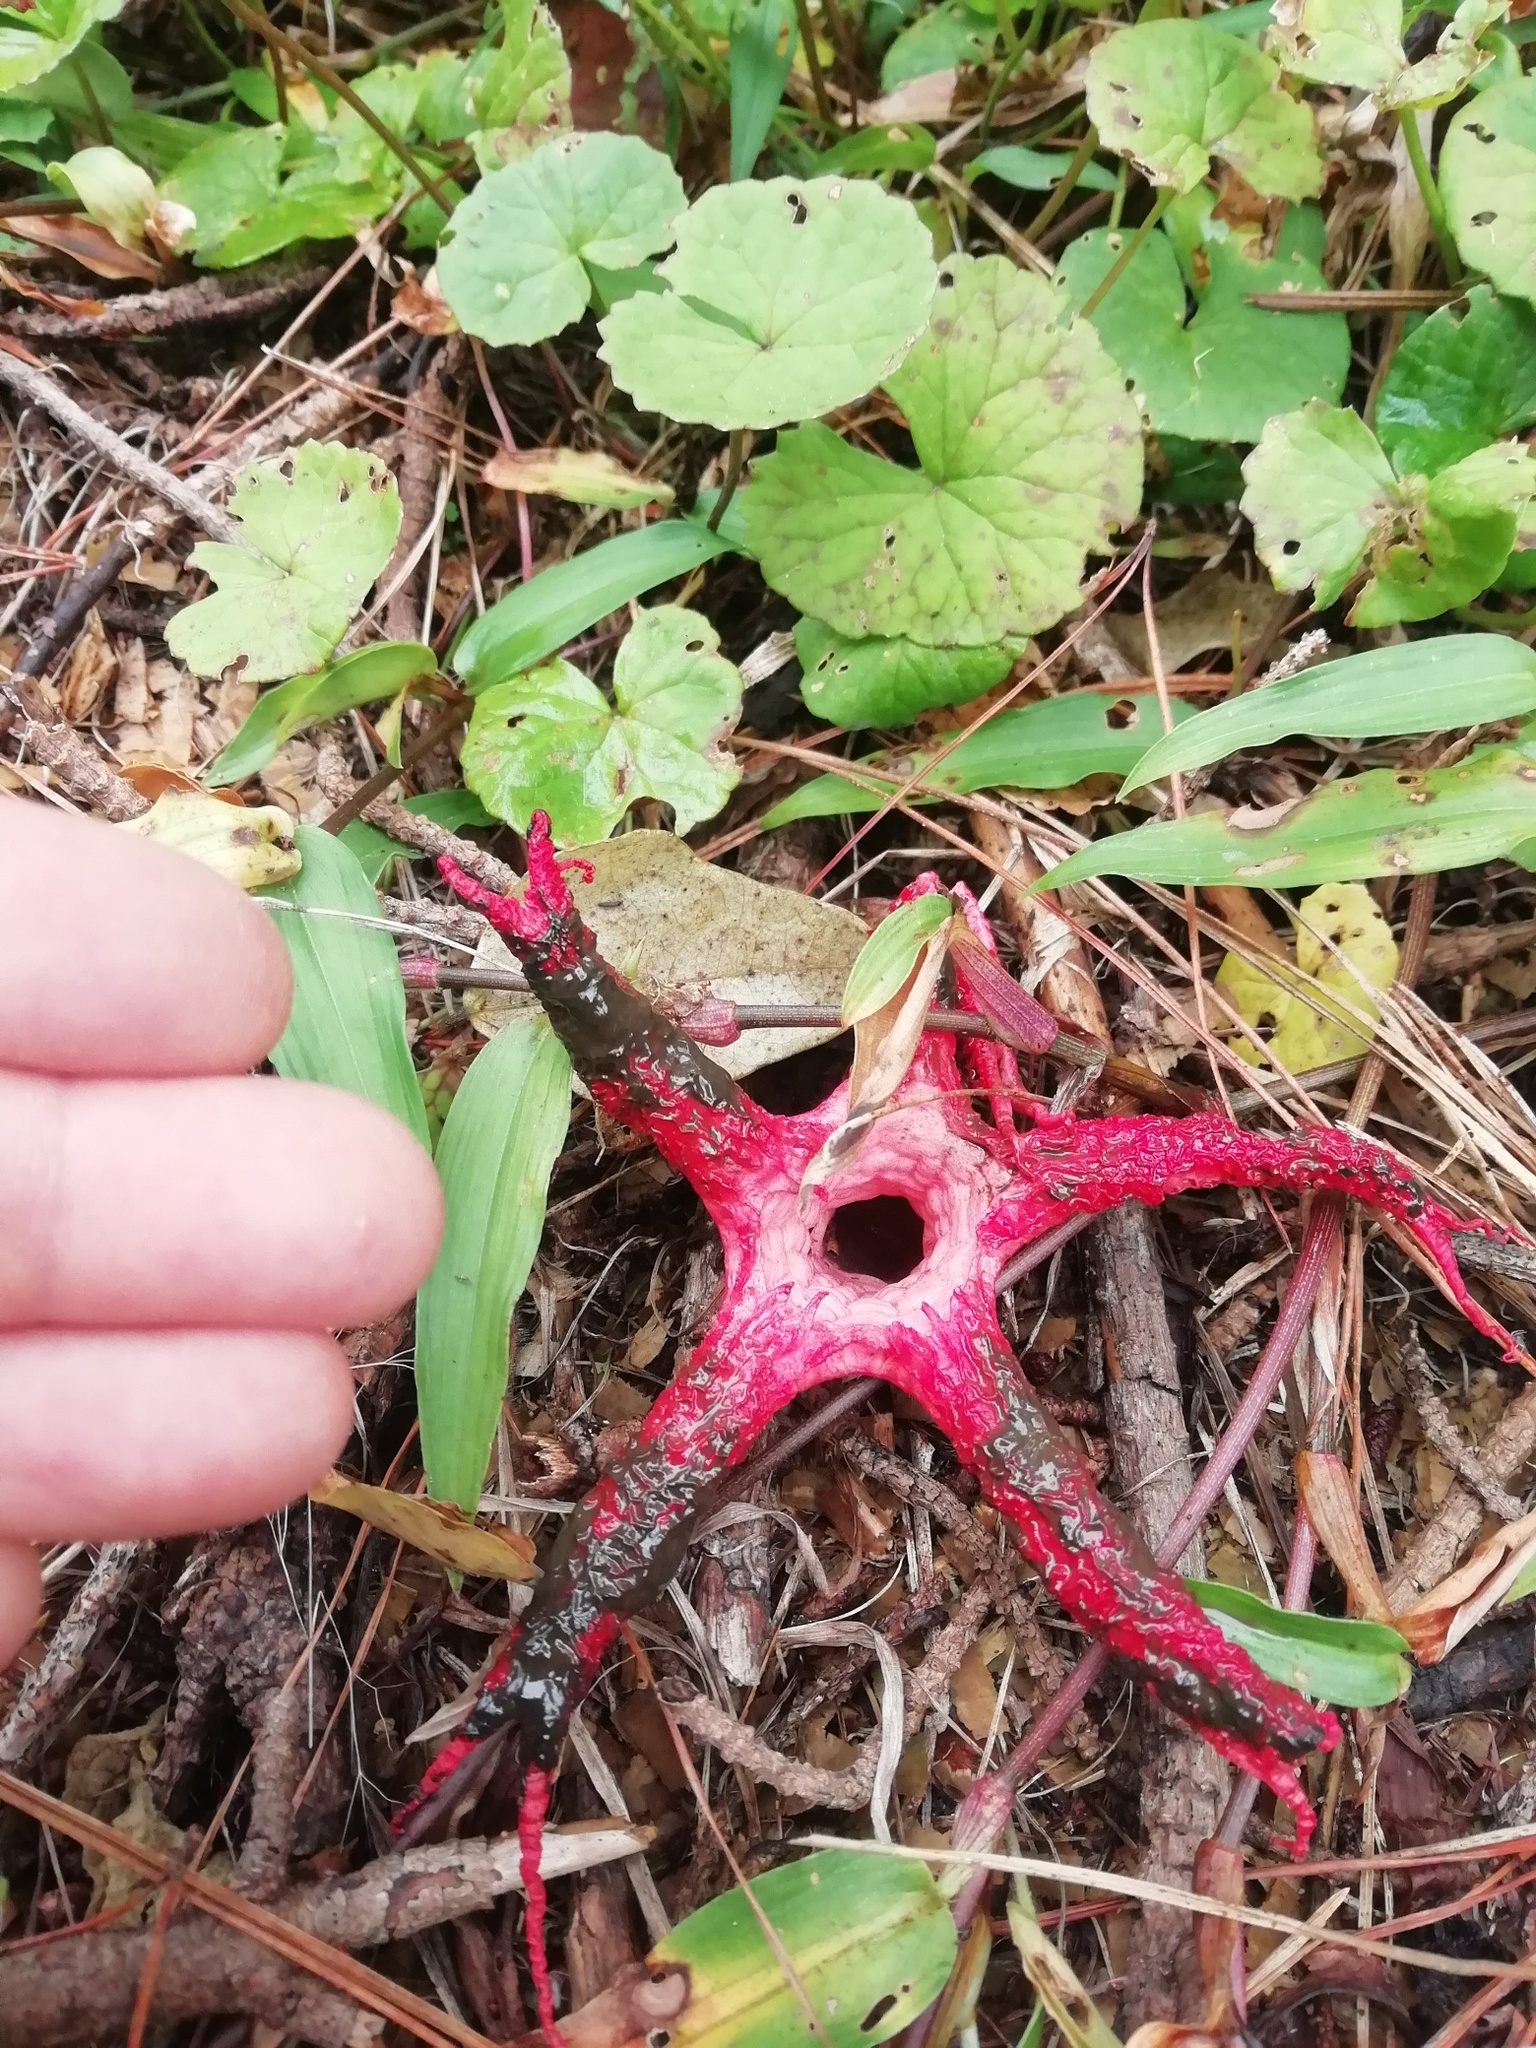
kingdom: Fungi
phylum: Basidiomycota
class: Agaricomycetes
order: Phallales
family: Phallaceae
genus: Clathrus
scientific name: Clathrus archeri
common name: Devil's fingers
